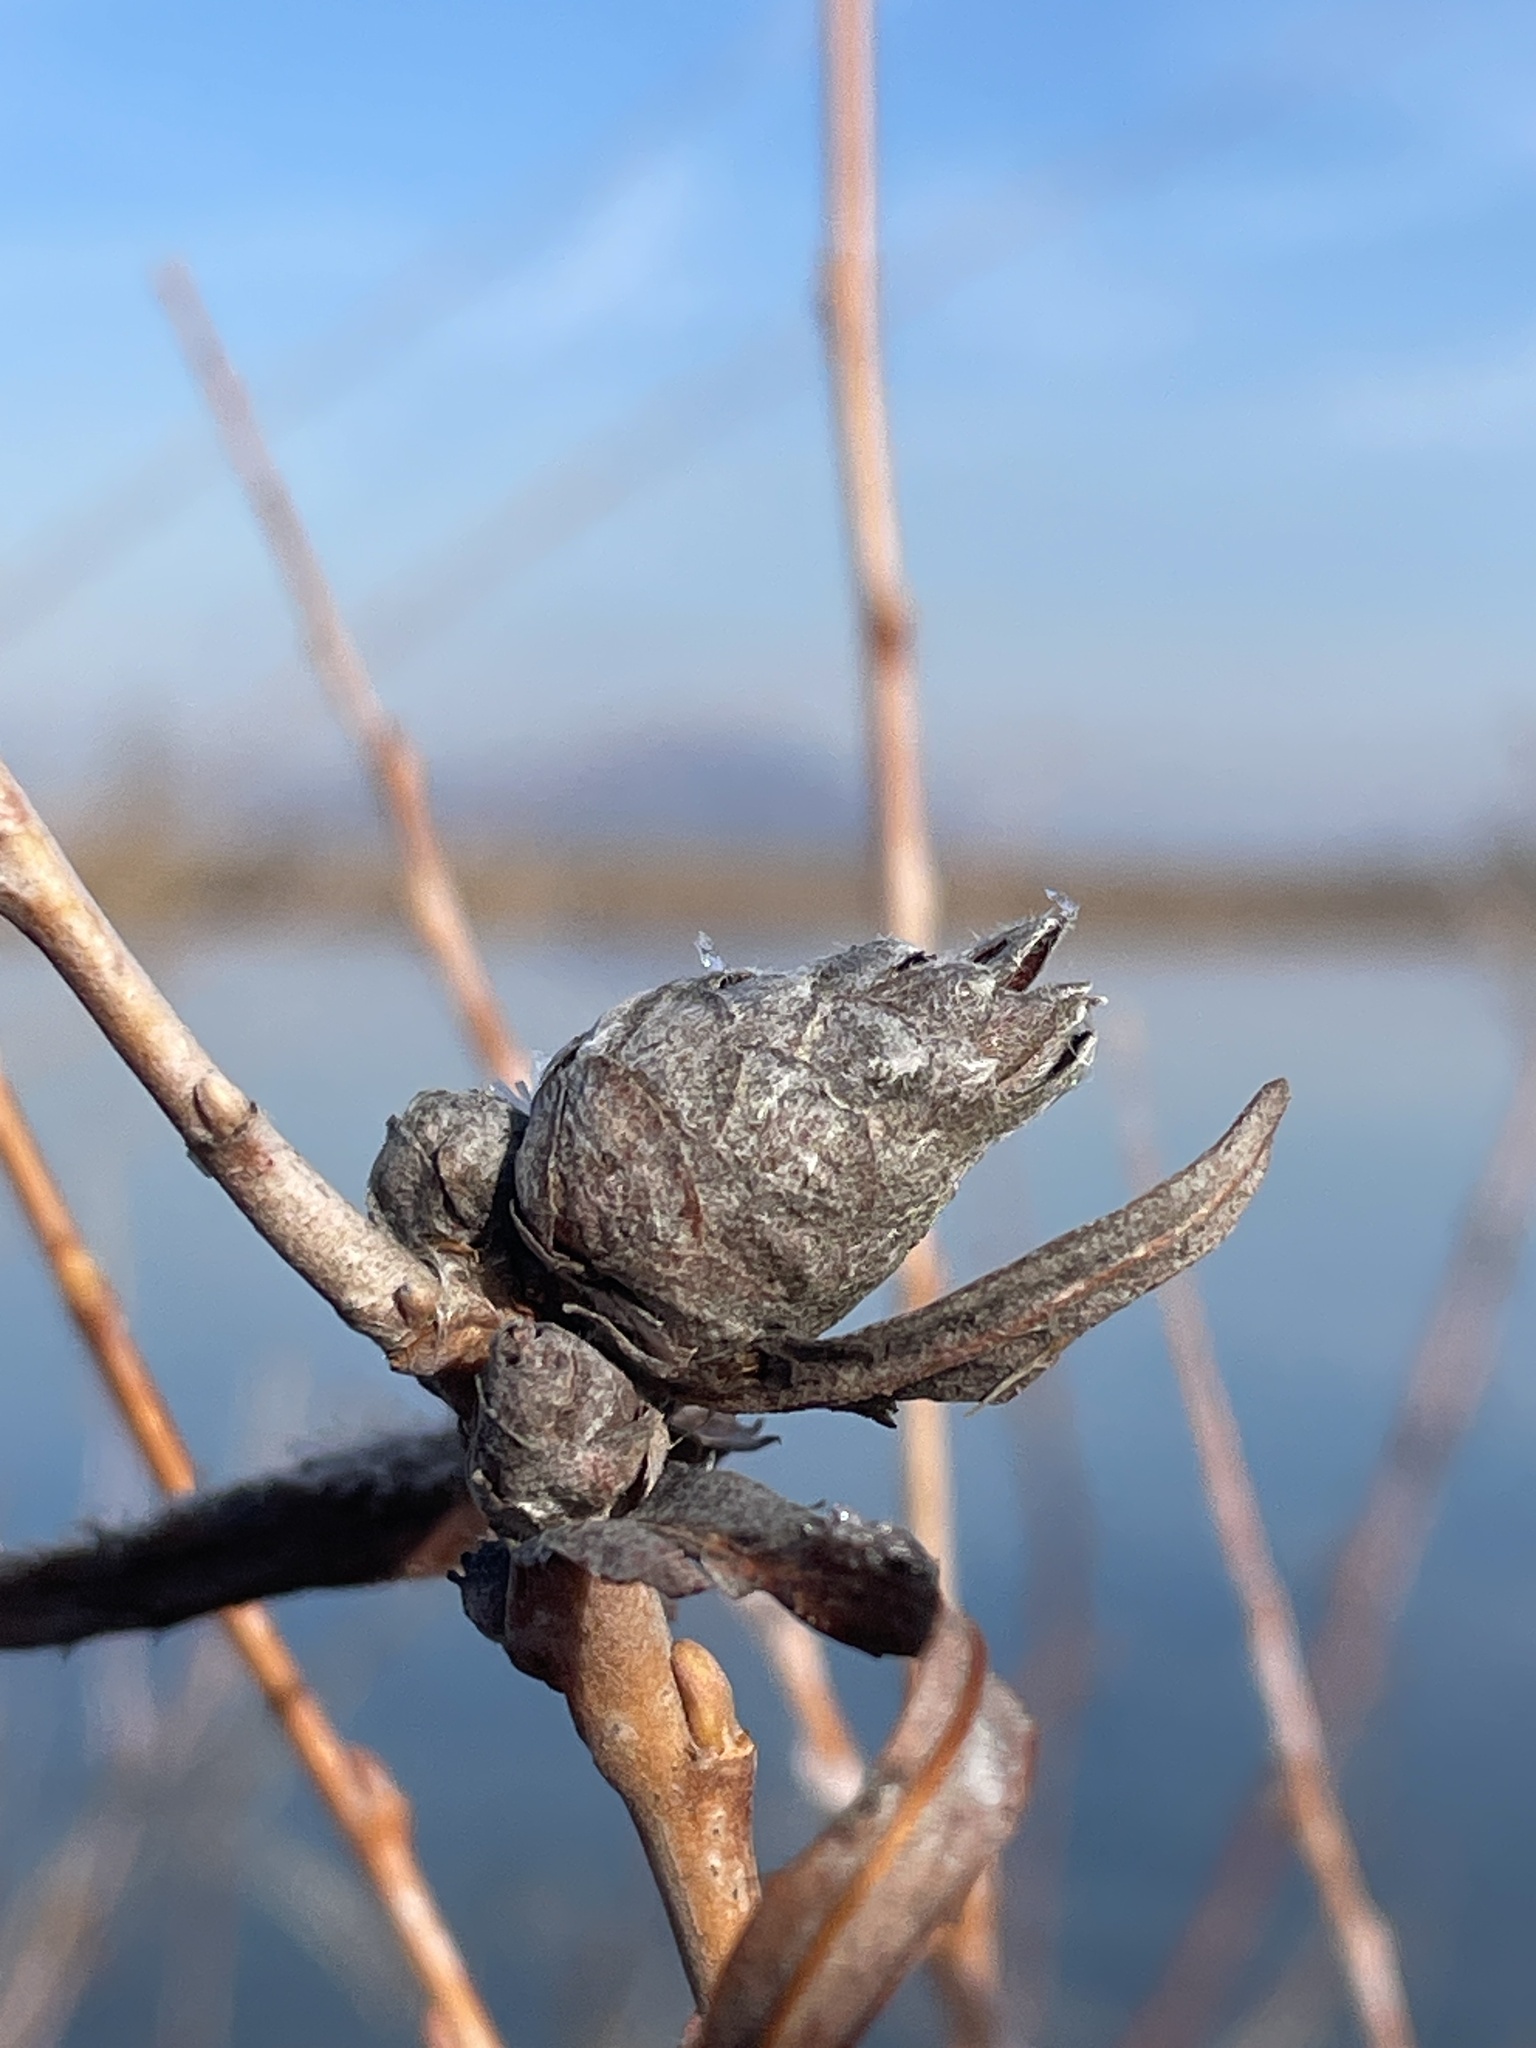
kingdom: Animalia
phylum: Arthropoda
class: Insecta
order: Diptera
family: Cecidomyiidae
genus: Rabdophaga
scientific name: Rabdophaga strobiloides
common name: Willow pinecone gall midge
